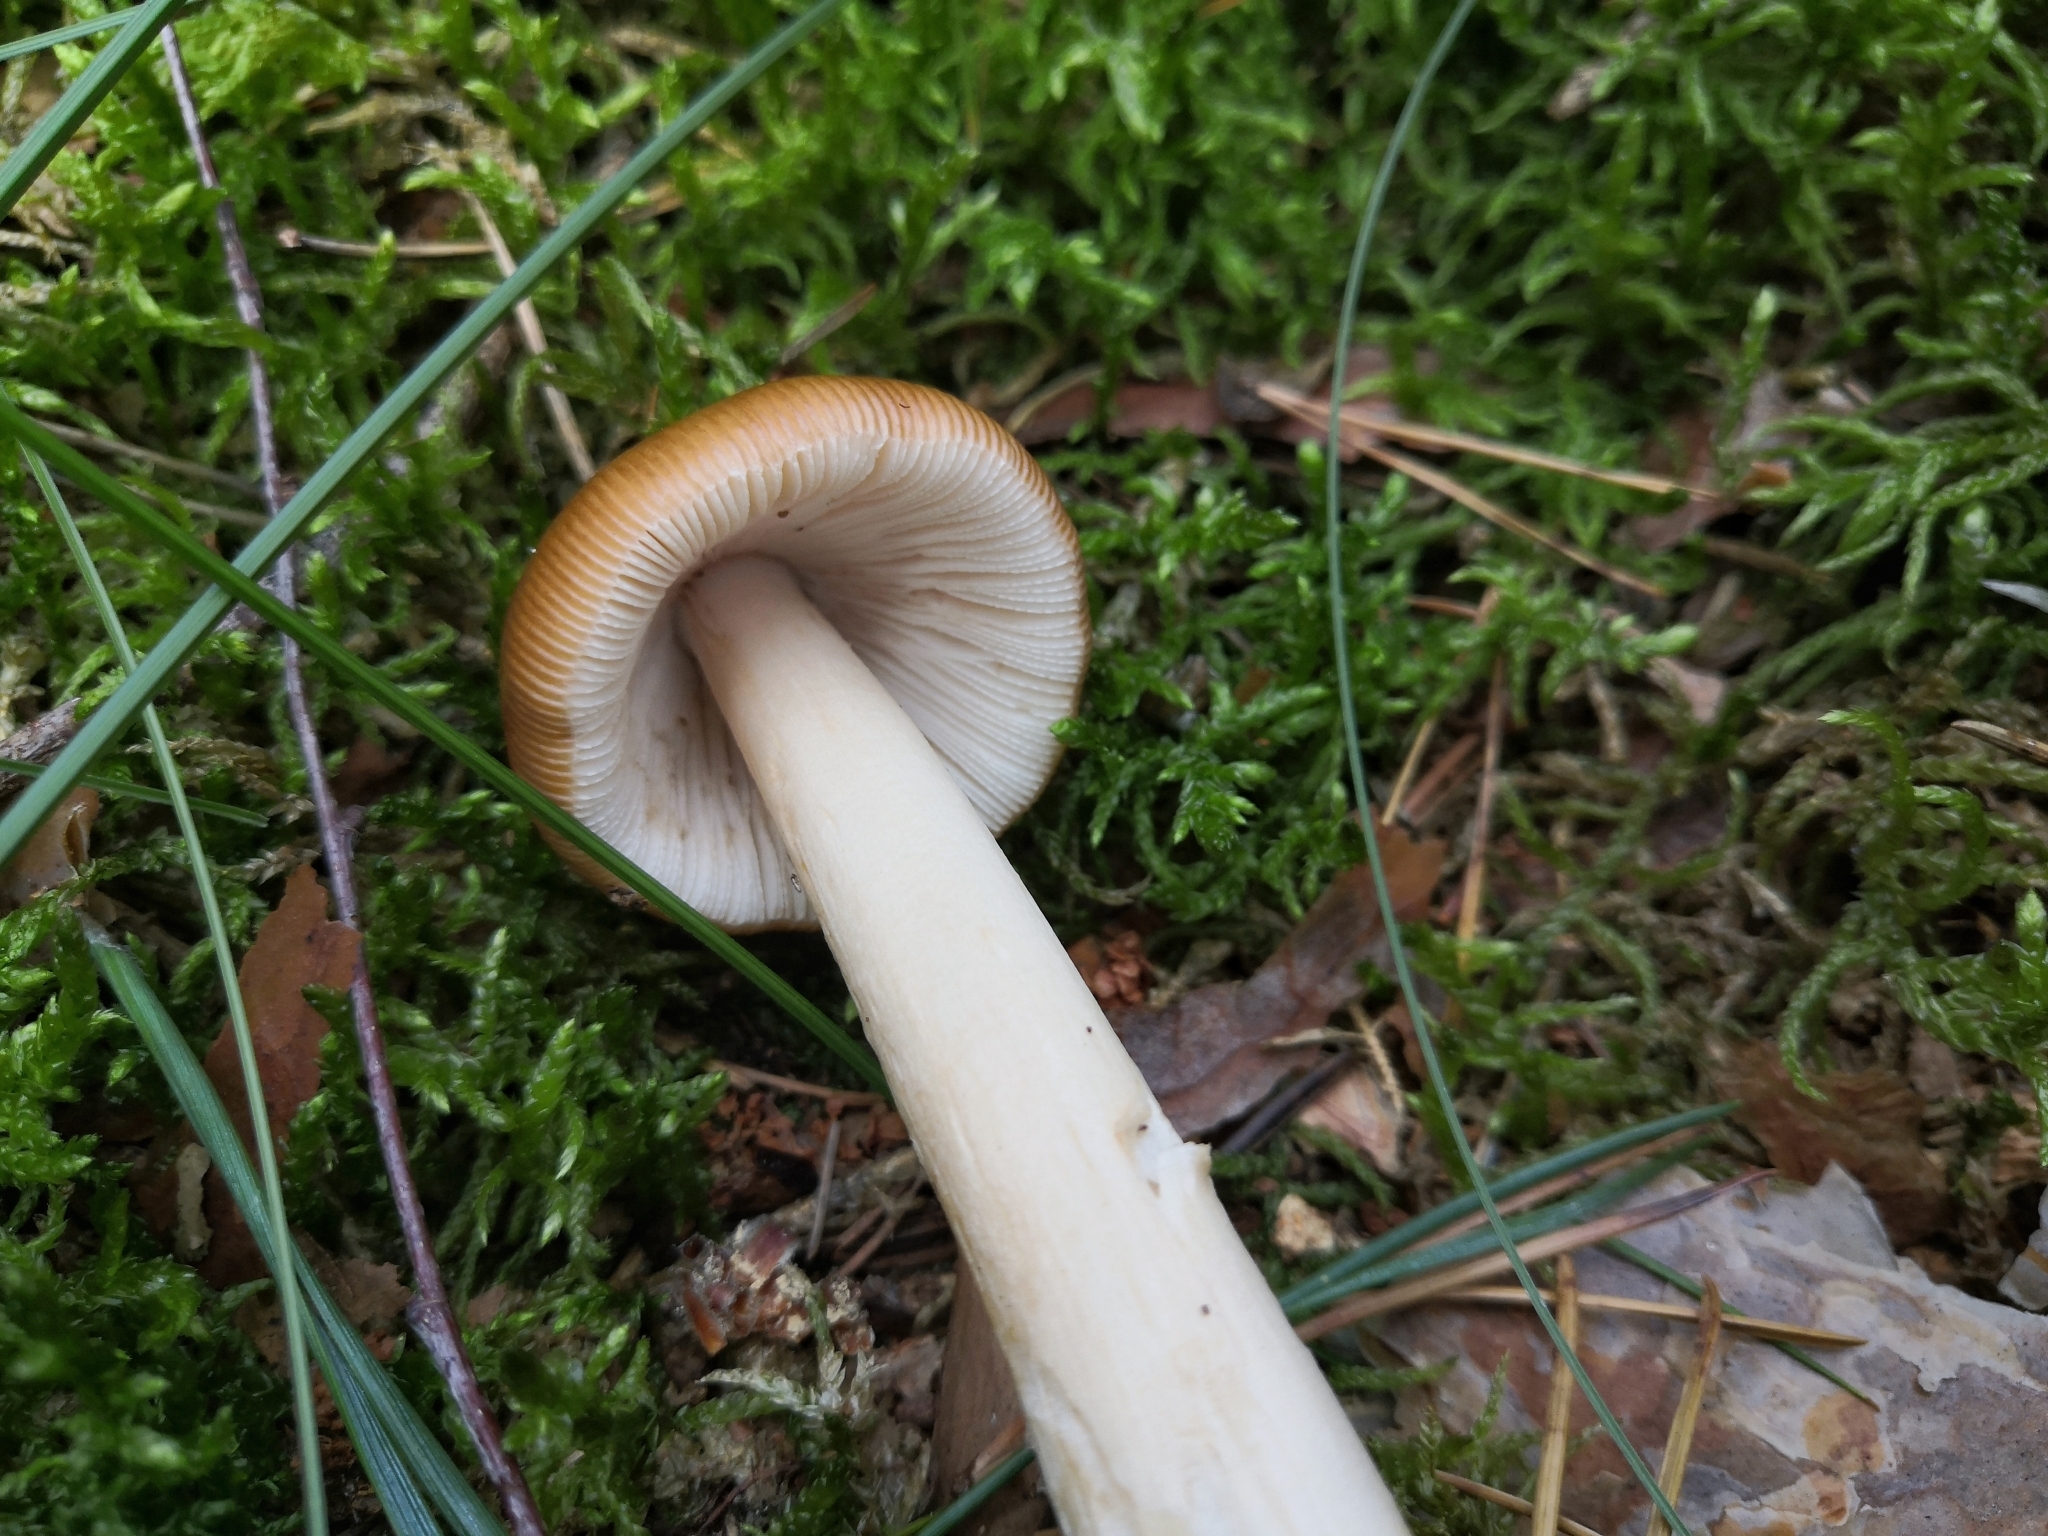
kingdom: Fungi
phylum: Basidiomycota
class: Agaricomycetes
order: Agaricales
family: Amanitaceae
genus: Amanita
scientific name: Amanita fulva
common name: Tawny grisette
